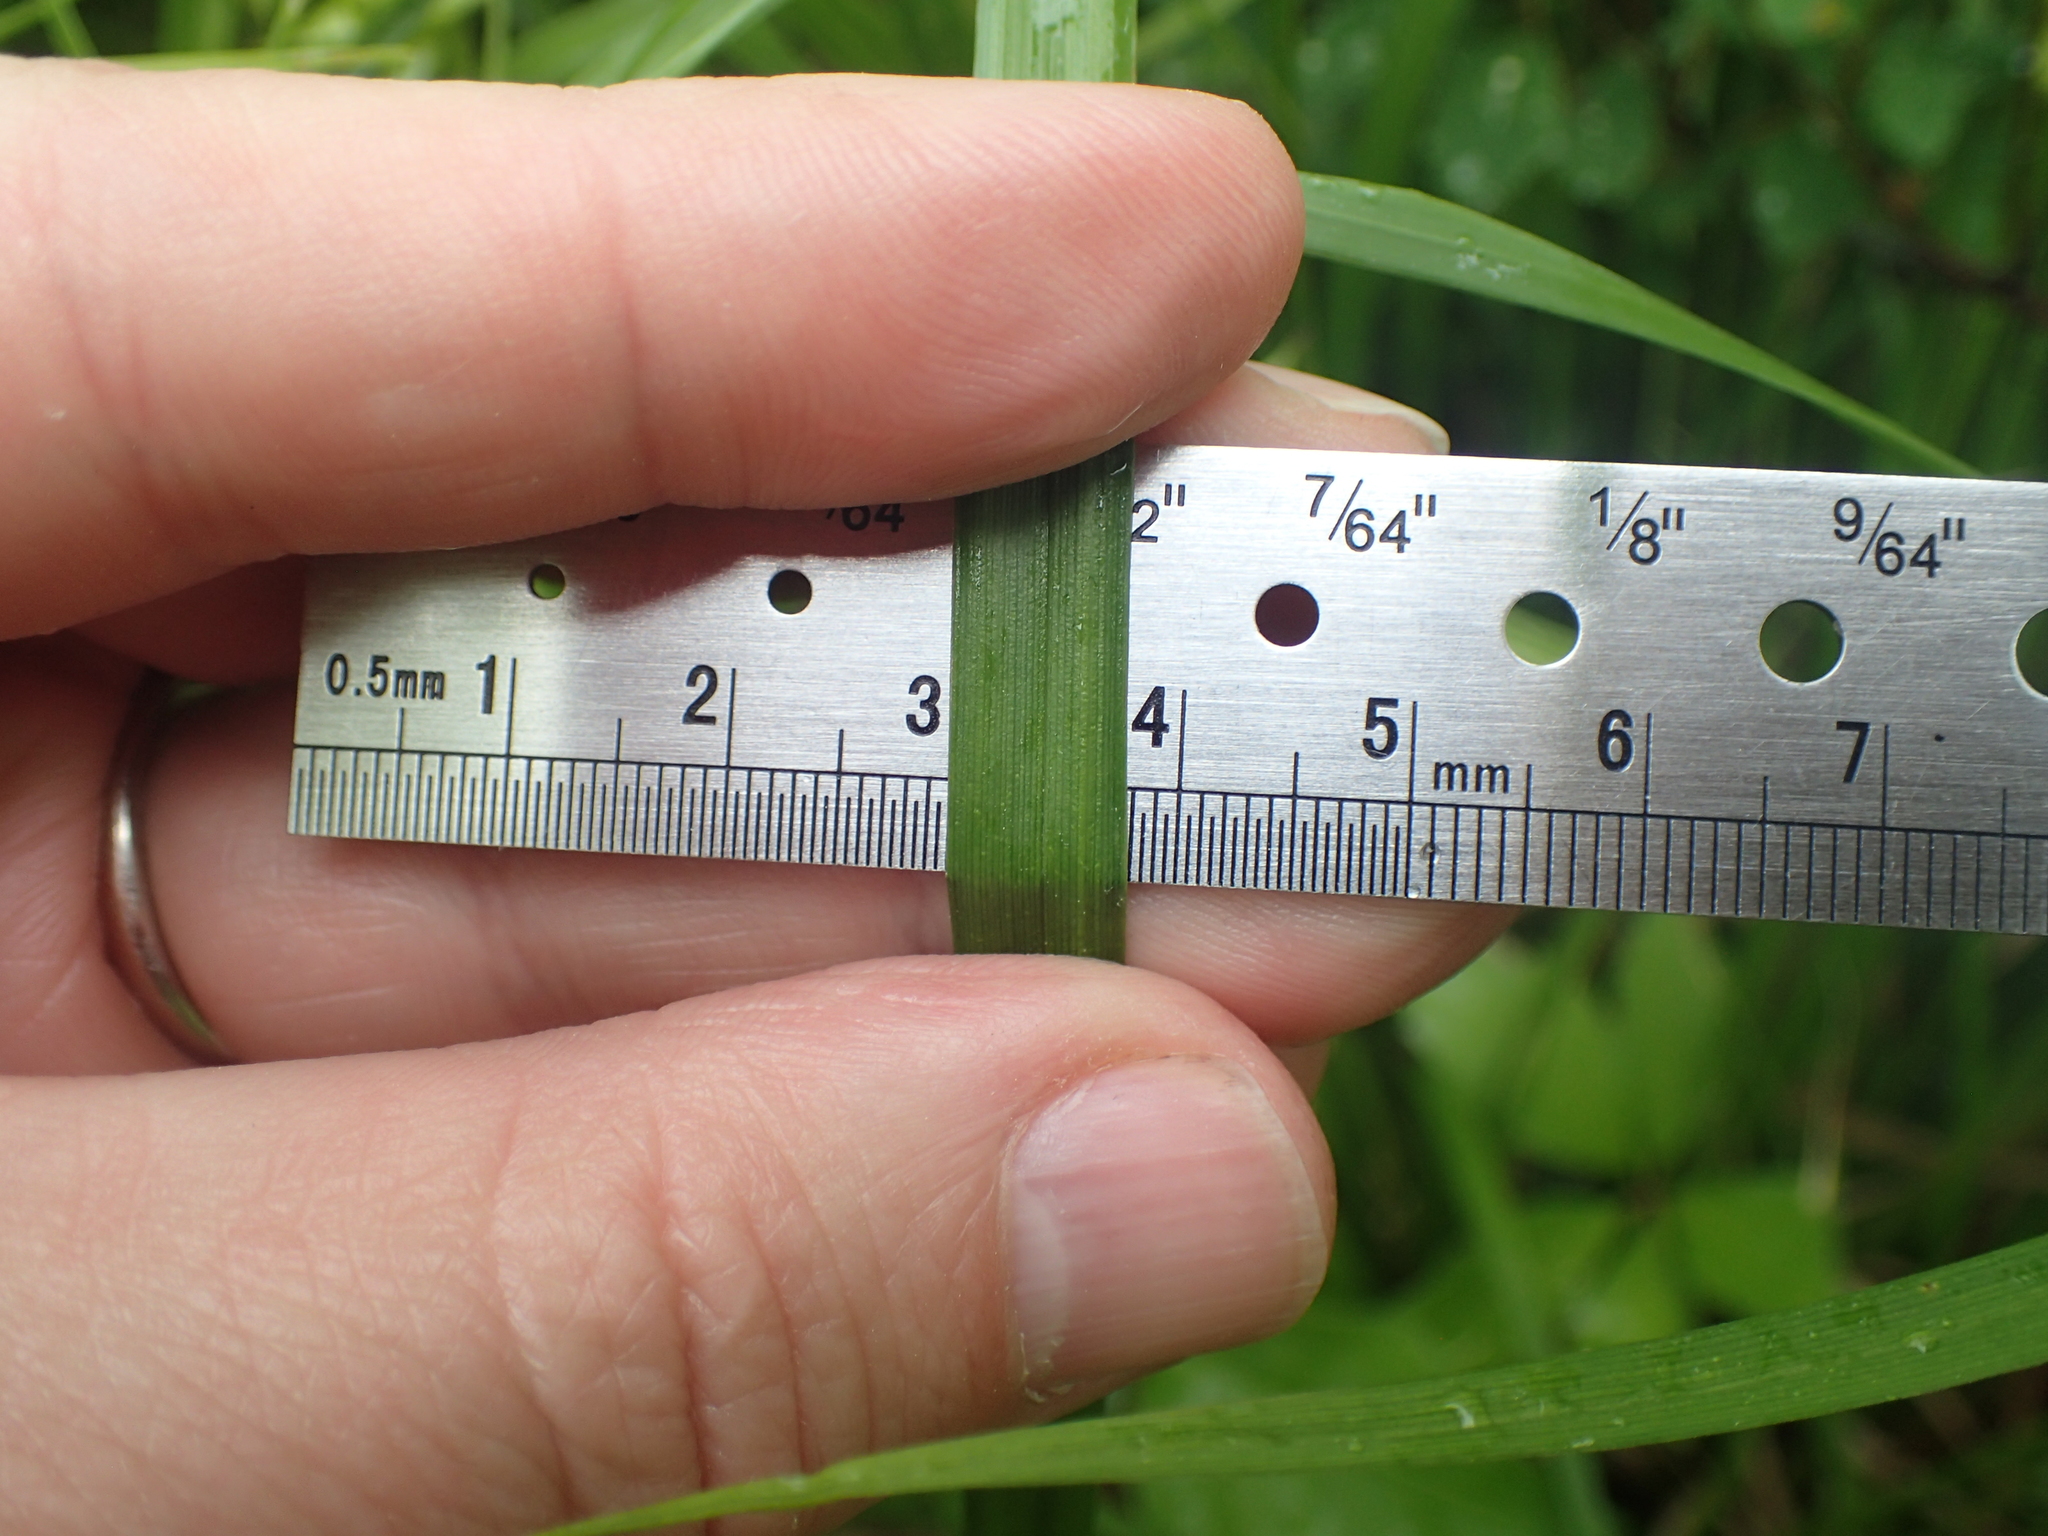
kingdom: Plantae
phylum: Tracheophyta
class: Liliopsida
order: Poales
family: Cyperaceae
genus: Carex
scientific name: Carex intumescens
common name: Greater bladder sedge
